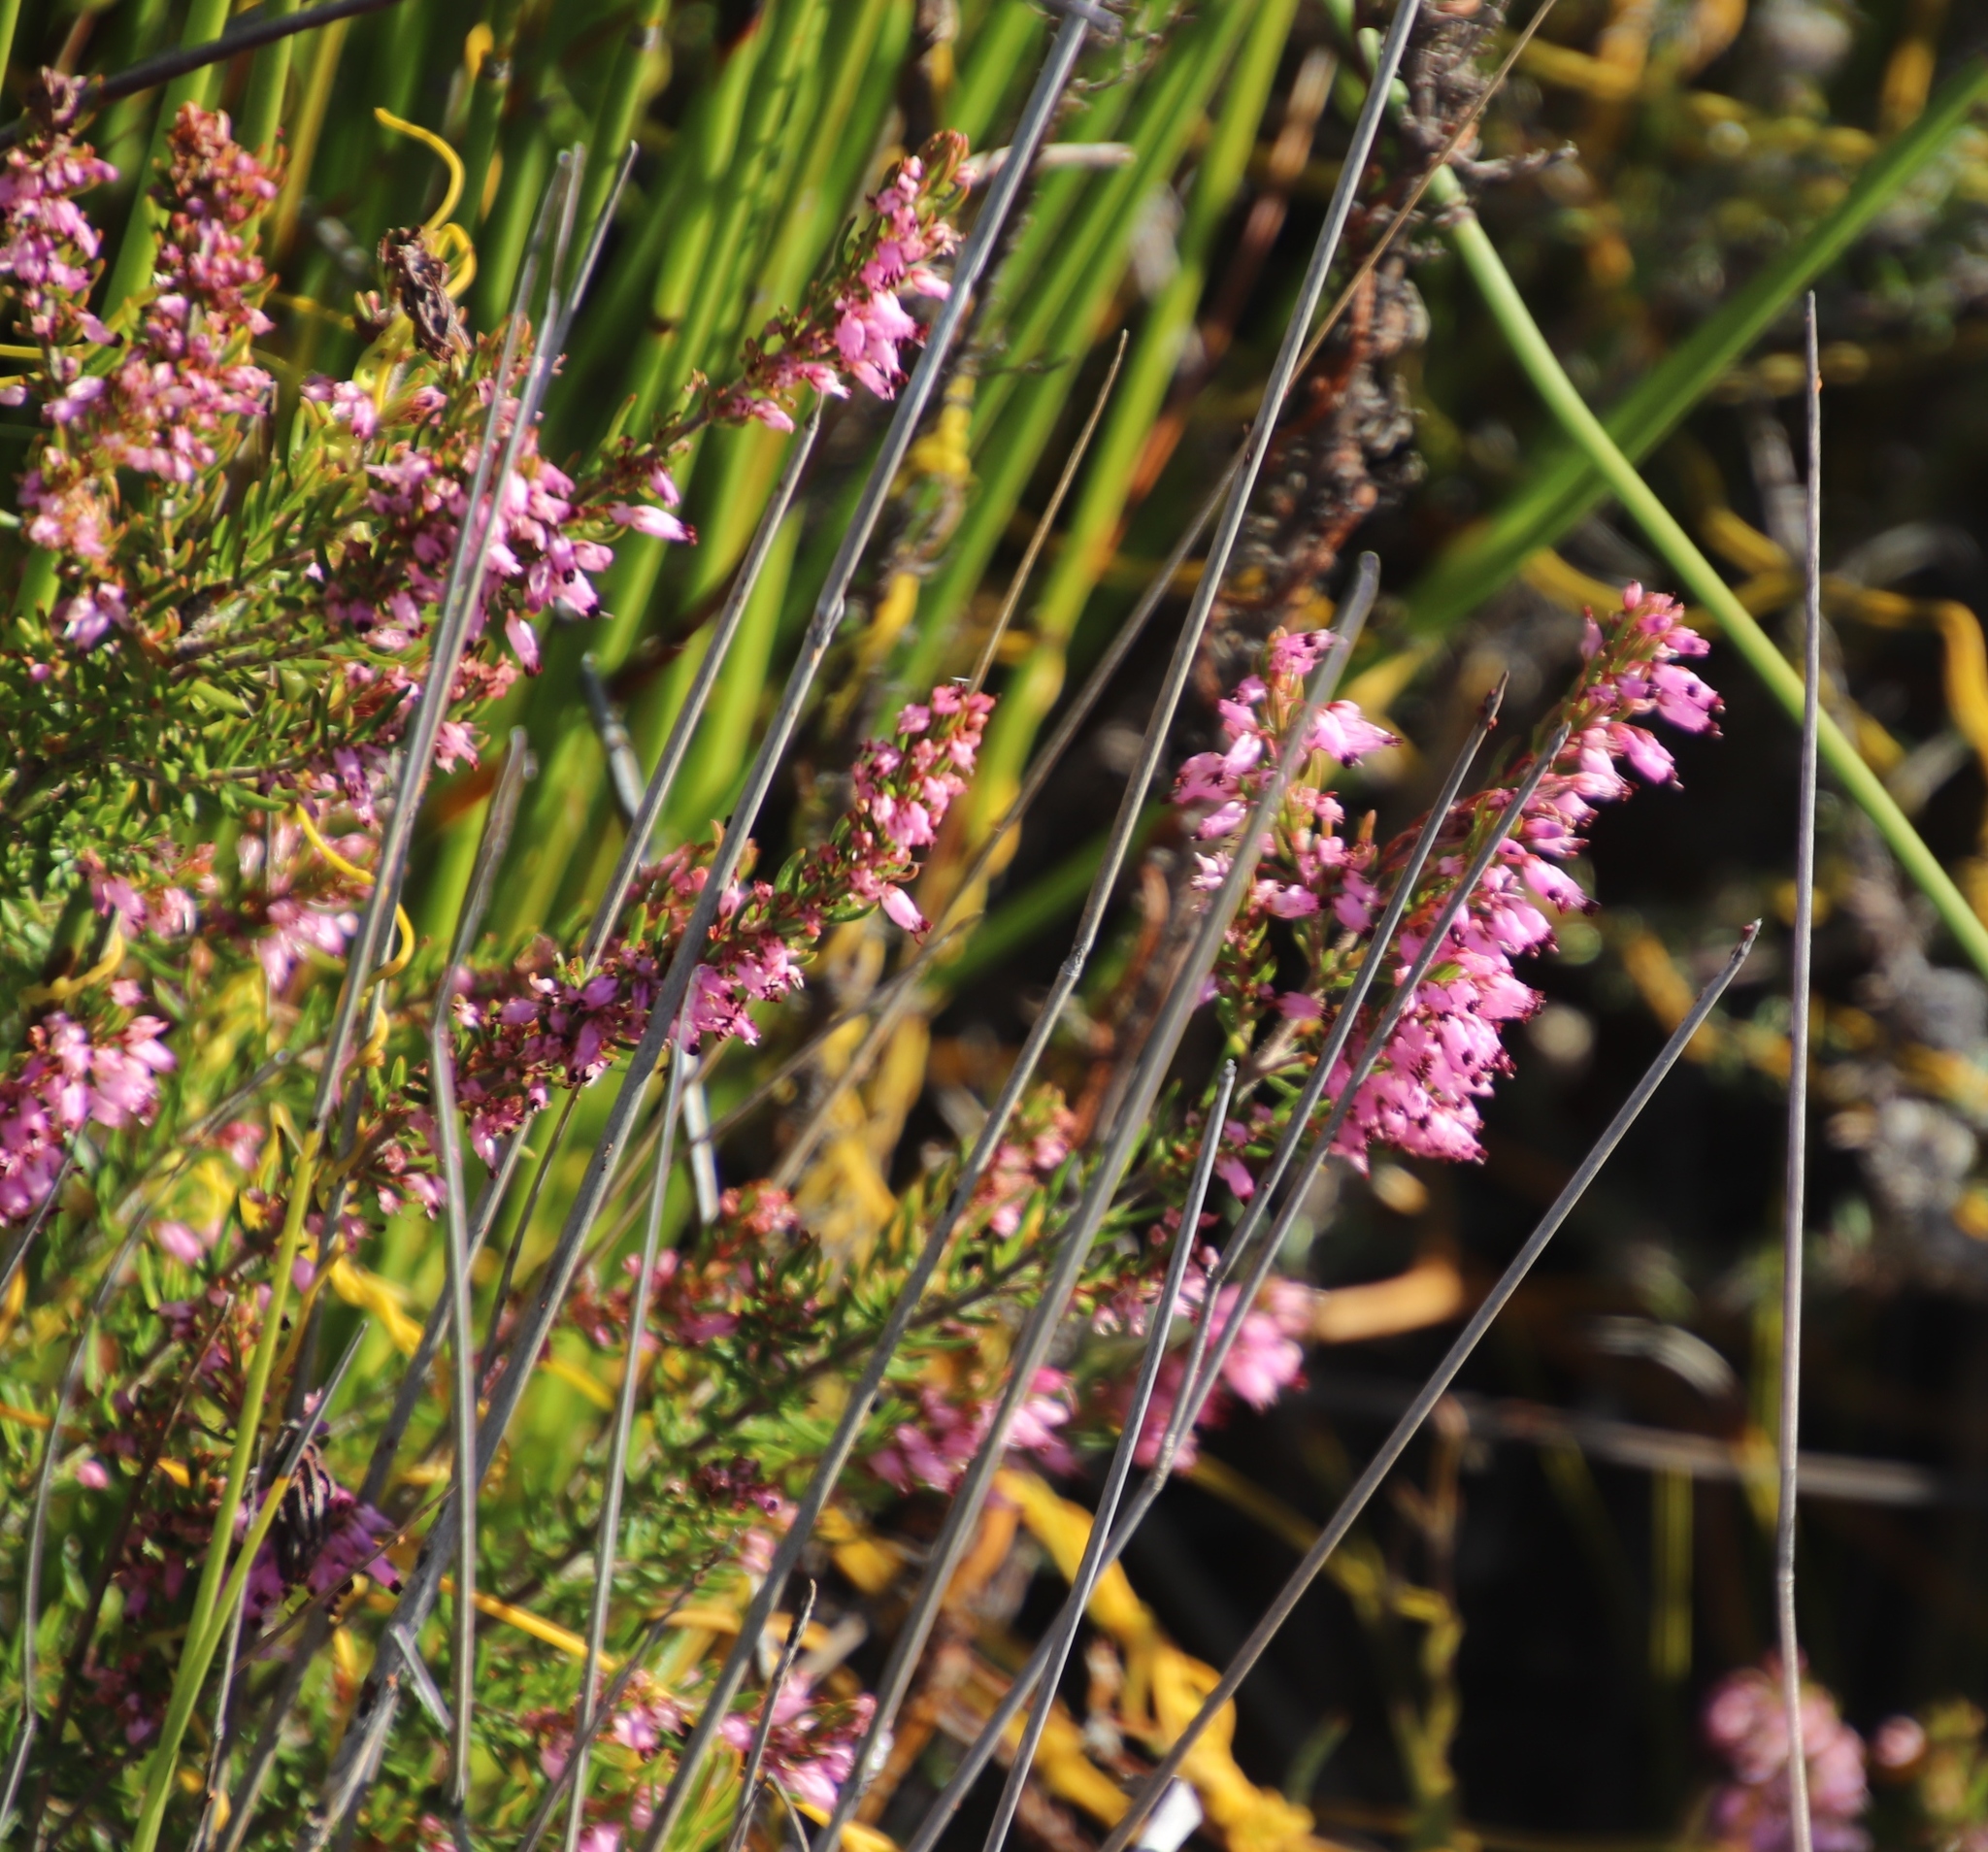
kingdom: Plantae
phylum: Tracheophyta
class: Magnoliopsida
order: Ericales
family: Ericaceae
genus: Erica
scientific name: Erica nudiflora
